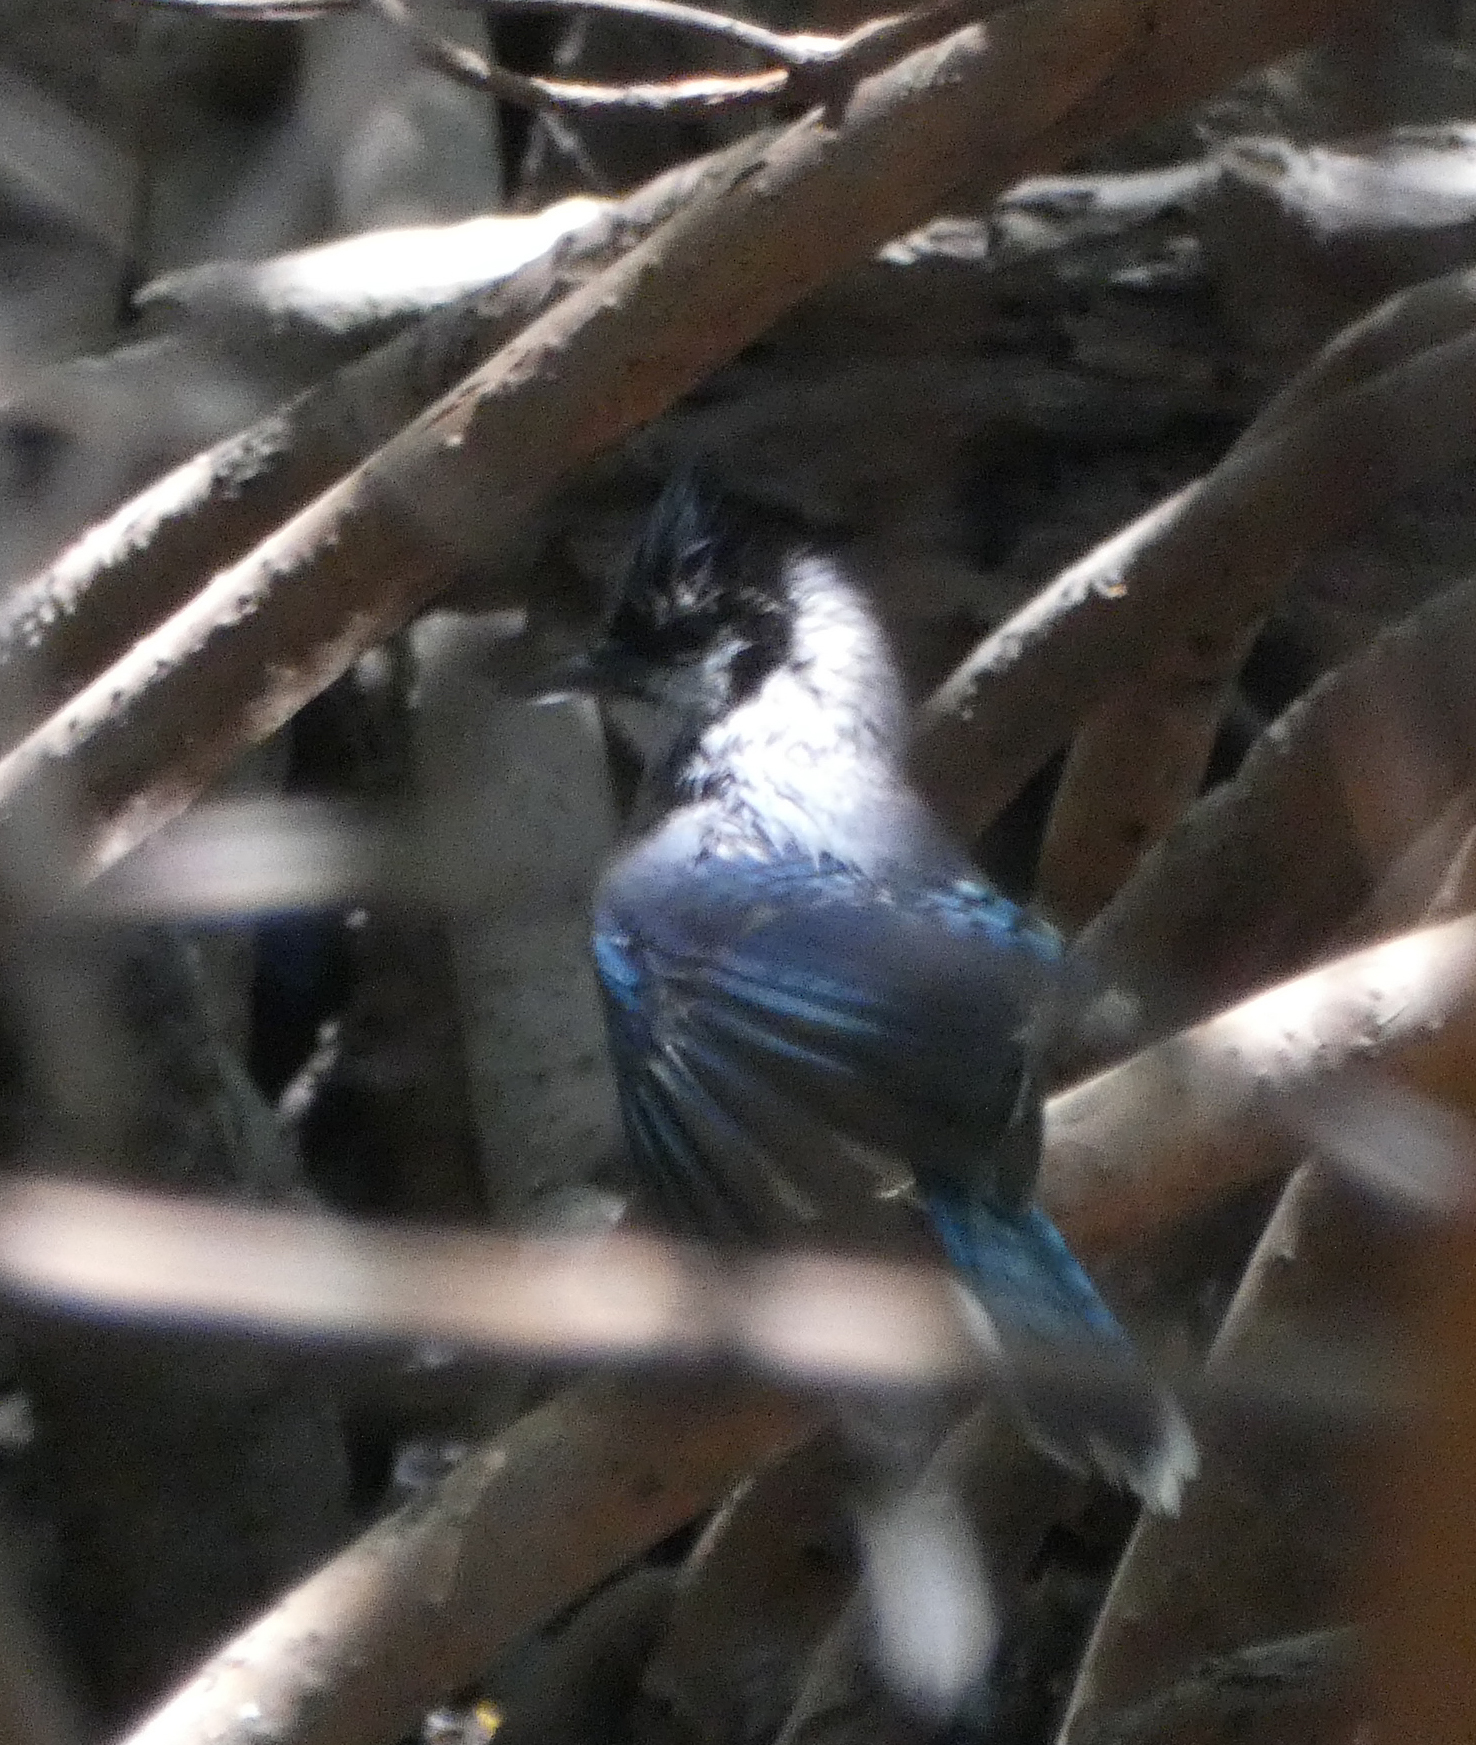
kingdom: Animalia
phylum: Chordata
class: Aves
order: Passeriformes
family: Corvidae
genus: Cyanocitta
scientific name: Cyanocitta cristata
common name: Blue jay
